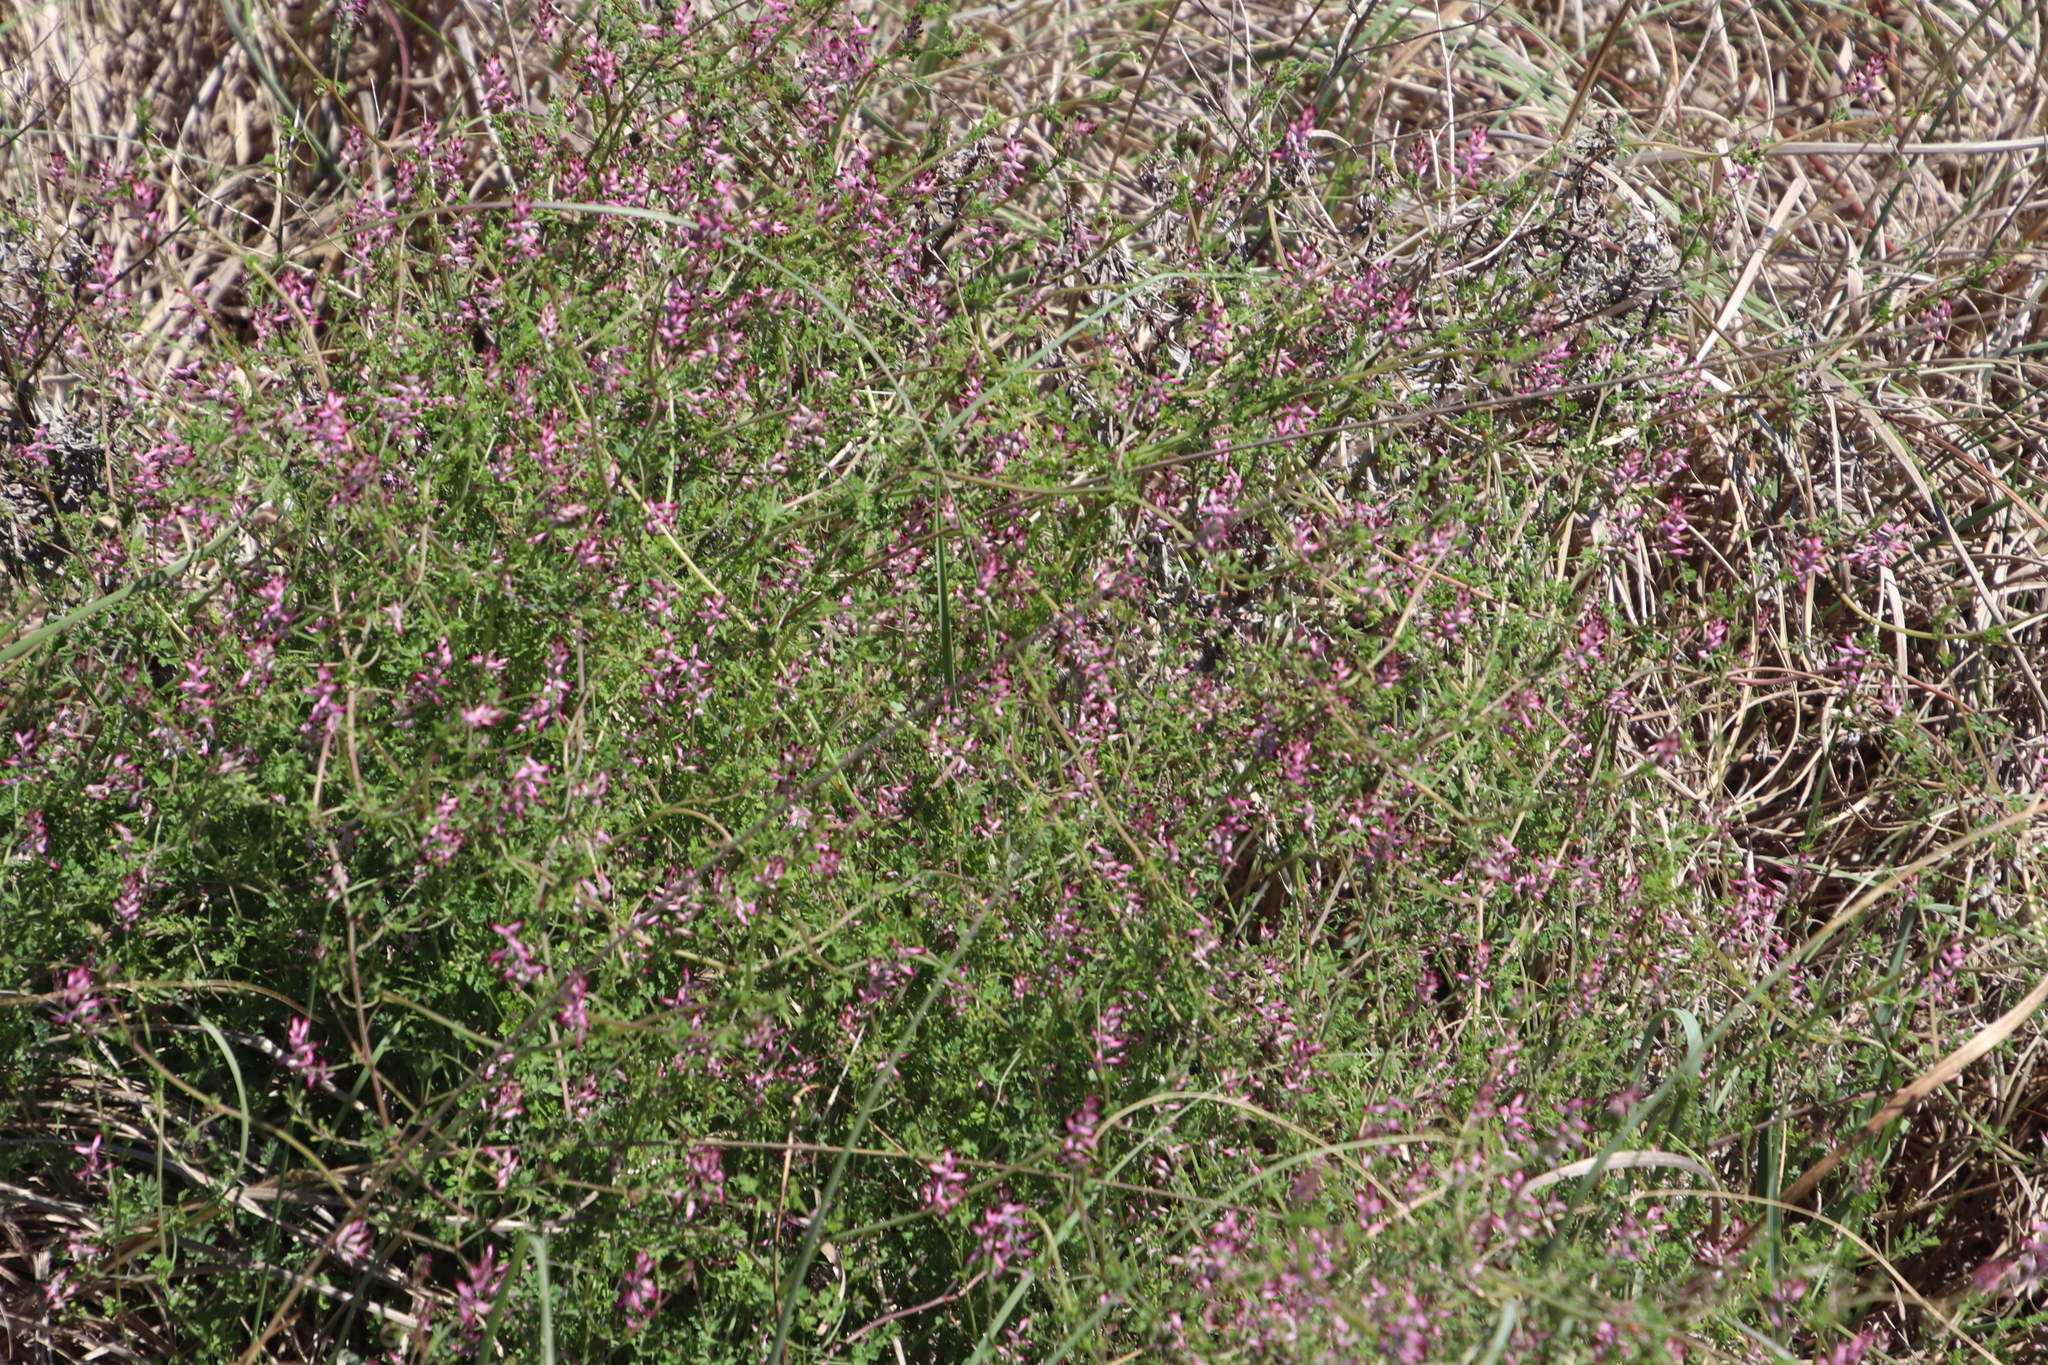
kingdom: Plantae
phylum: Tracheophyta
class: Magnoliopsida
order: Ranunculales
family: Papaveraceae
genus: Fumaria
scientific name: Fumaria muralis
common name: Common ramping-fumitory
